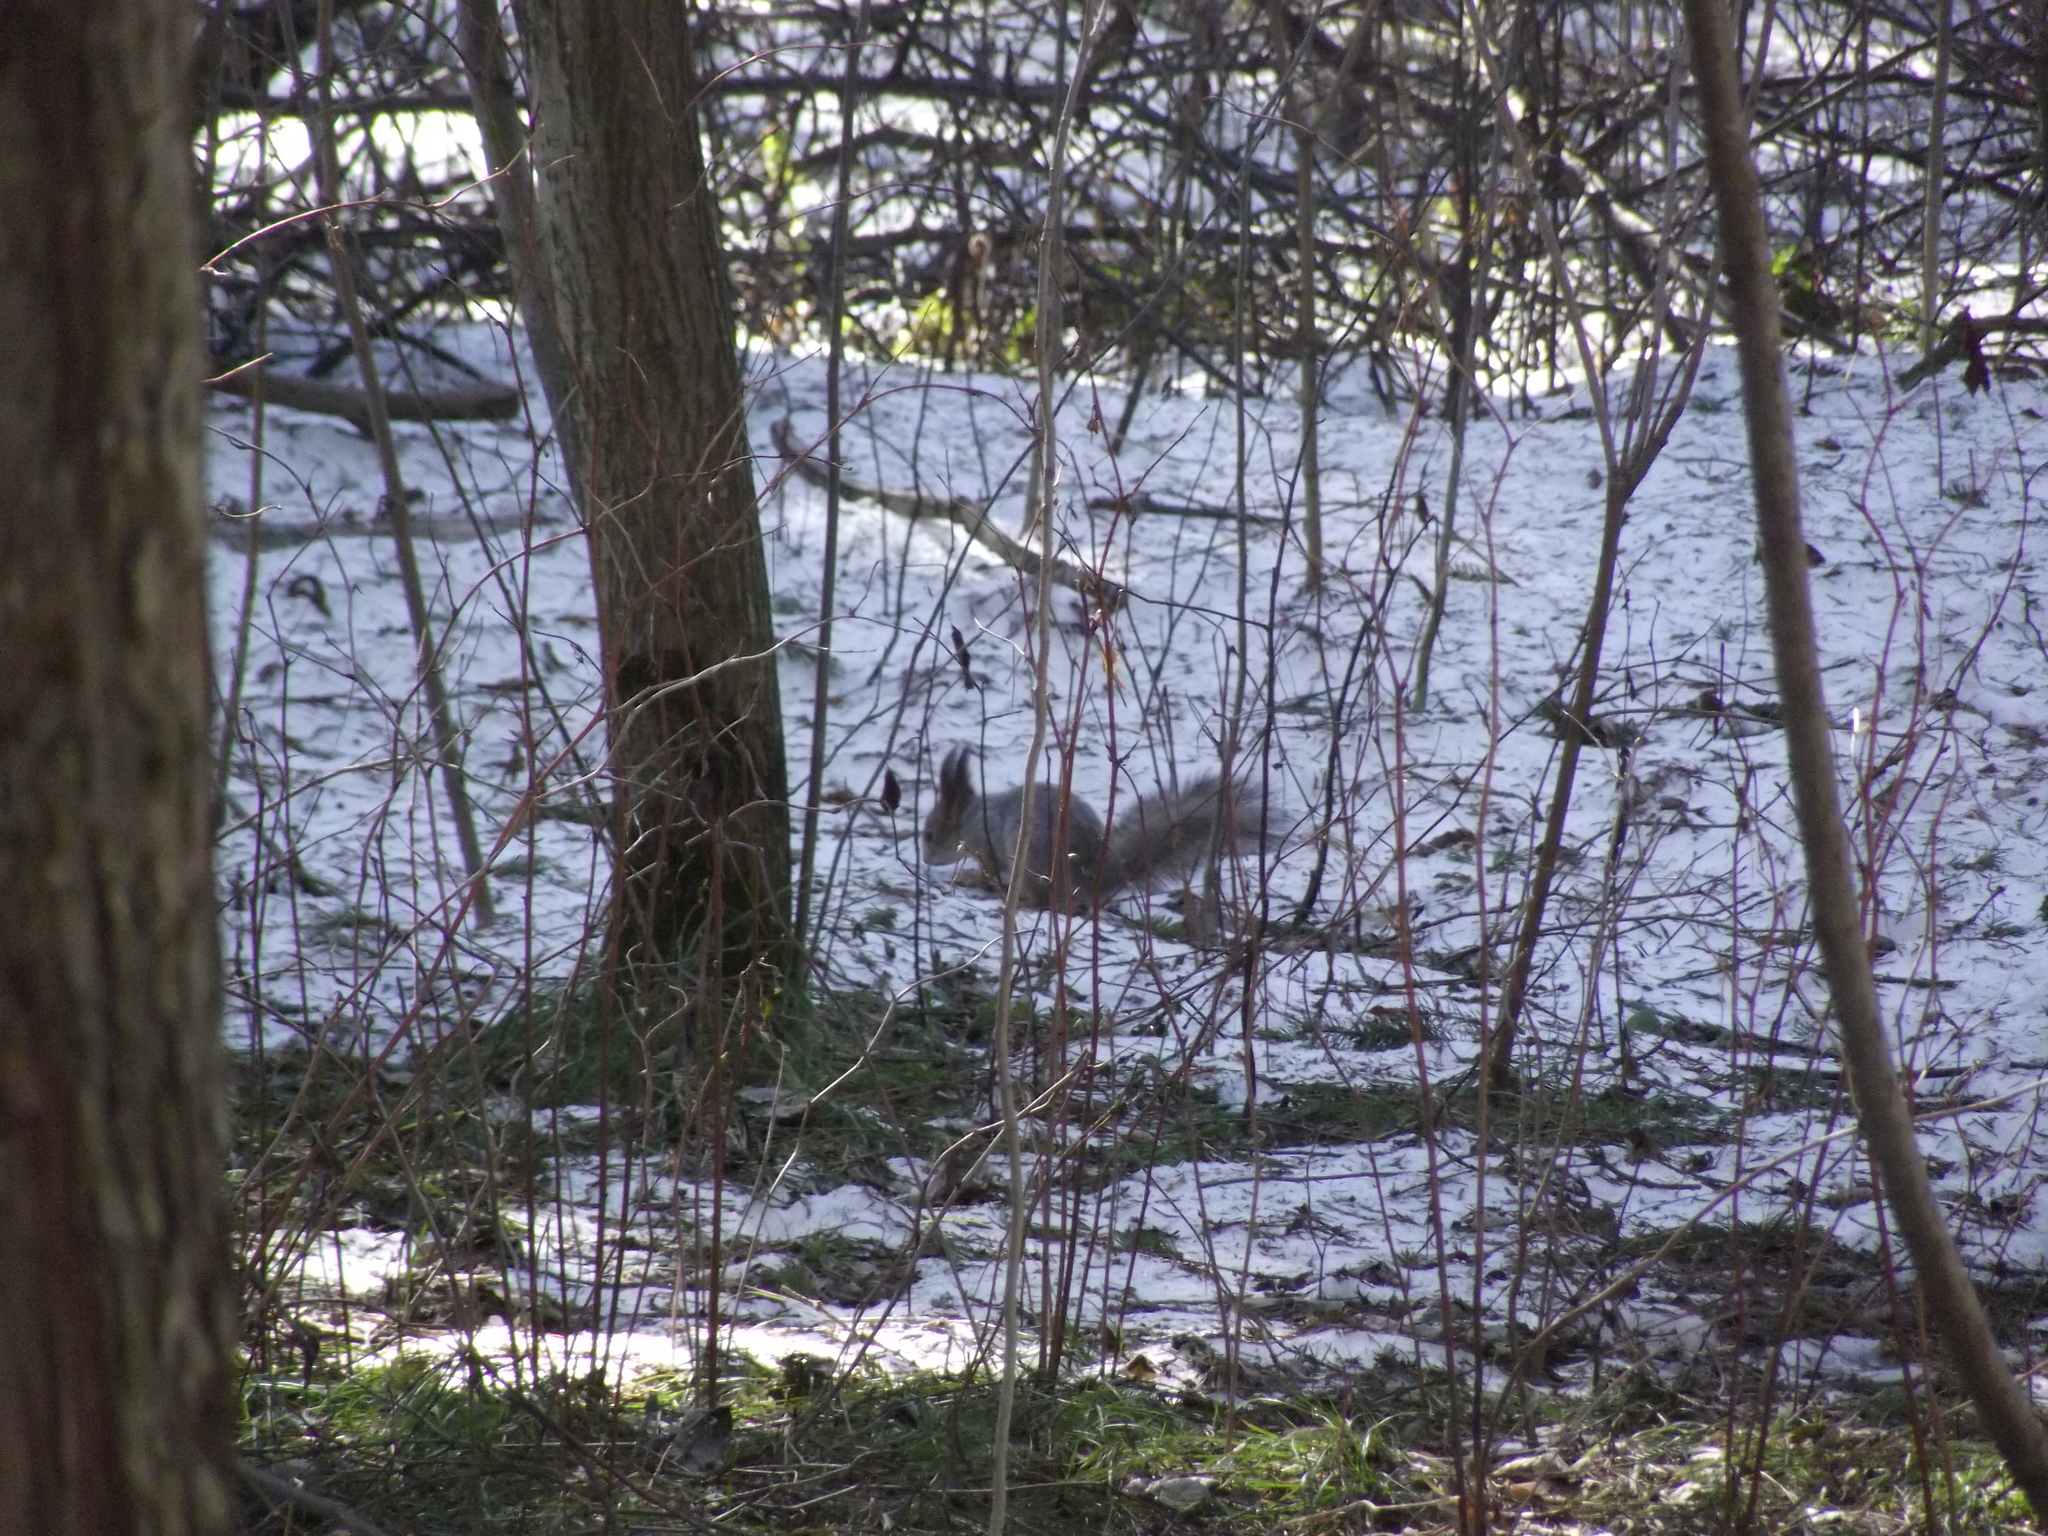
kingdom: Animalia
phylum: Chordata
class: Mammalia
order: Rodentia
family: Sciuridae
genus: Sciurus
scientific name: Sciurus vulgaris
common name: Eurasian red squirrel
